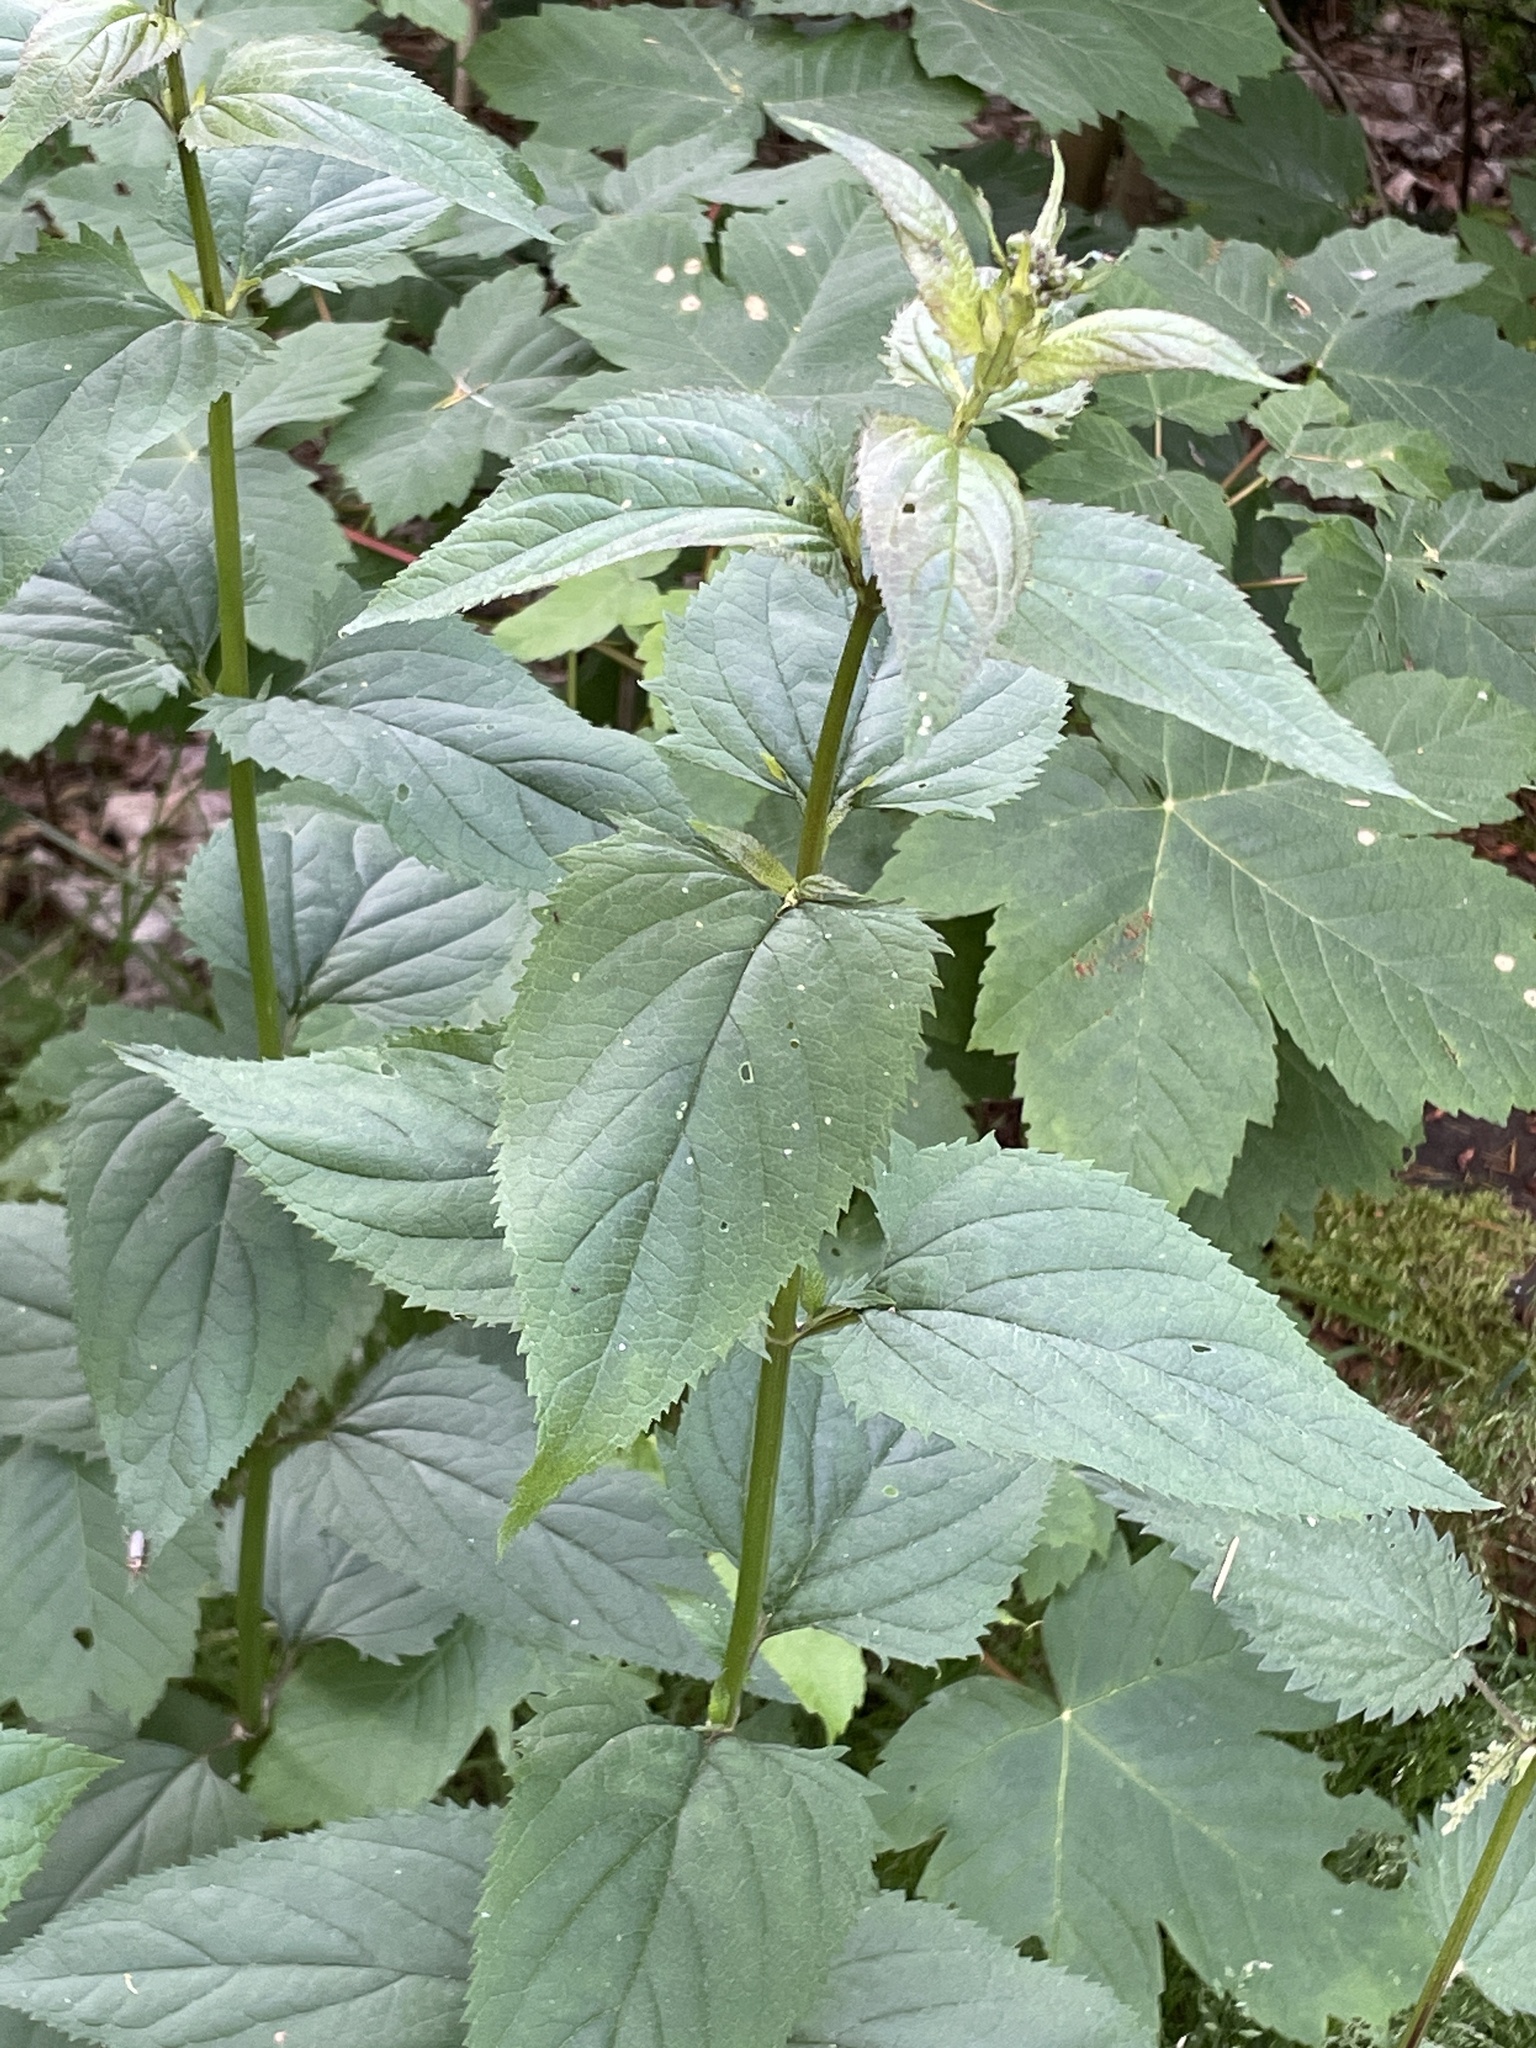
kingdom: Plantae
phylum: Tracheophyta
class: Magnoliopsida
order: Lamiales
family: Scrophulariaceae
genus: Scrophularia
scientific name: Scrophularia nodosa
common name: Common figwort
